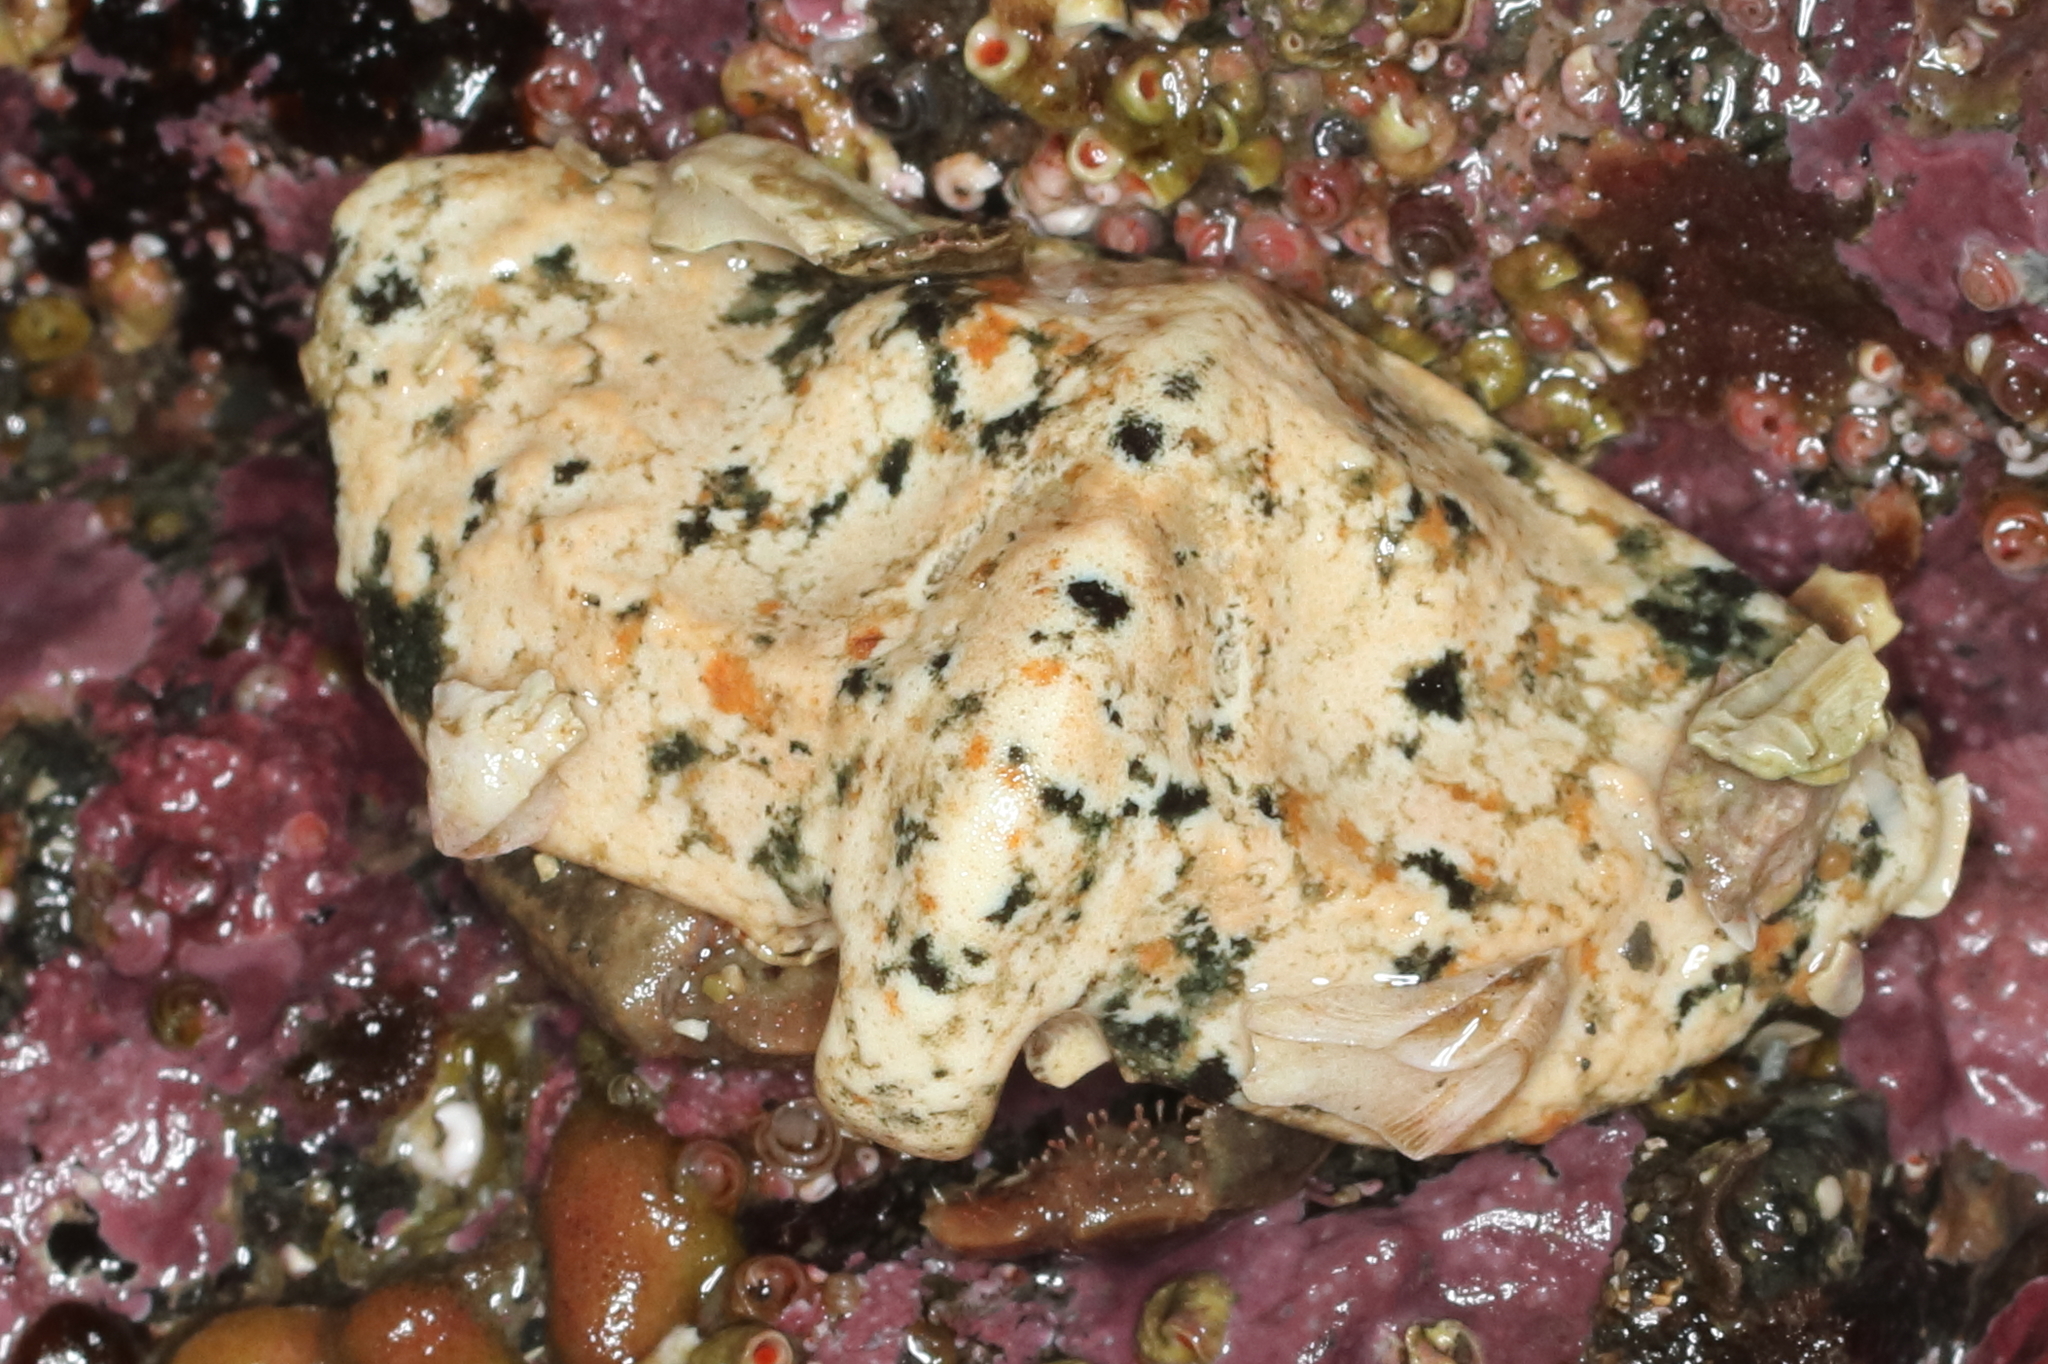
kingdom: Animalia
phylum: Arthropoda
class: Malacostraca
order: Decapoda
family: Lithodidae
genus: Cryptolithodes
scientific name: Cryptolithodes typicus
